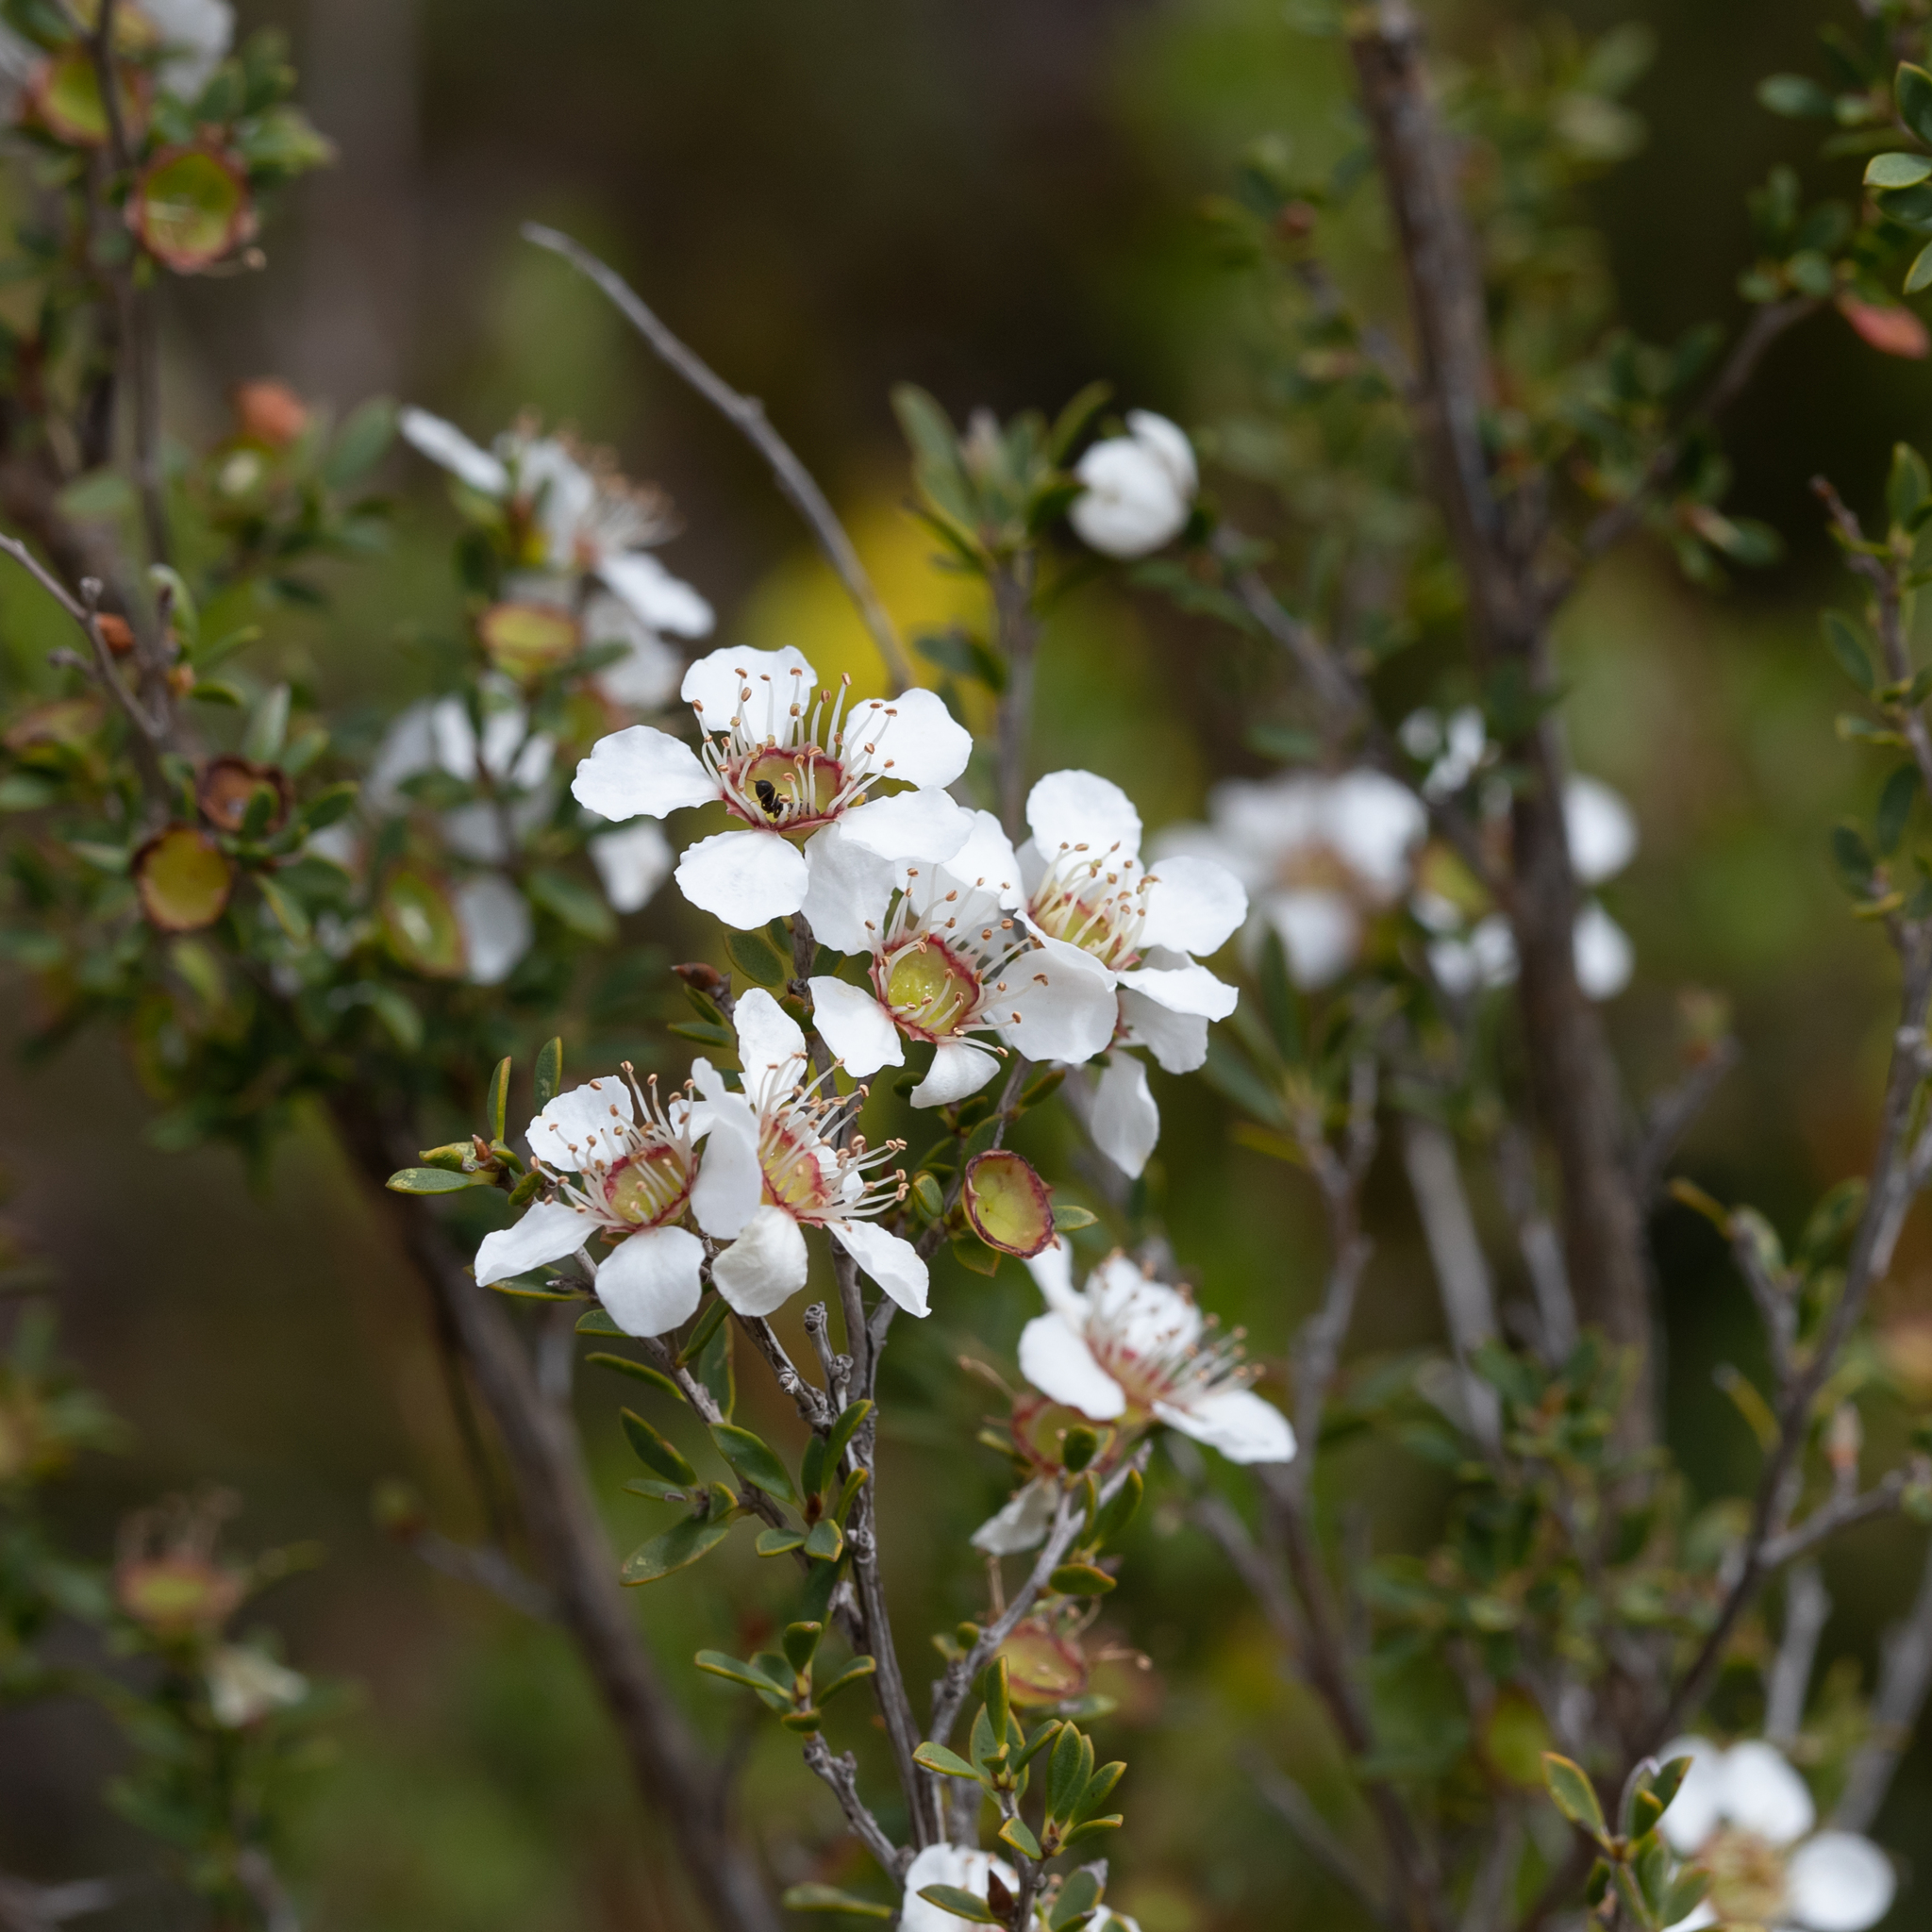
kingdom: Plantae
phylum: Tracheophyta
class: Magnoliopsida
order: Myrtales
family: Myrtaceae
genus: Leptospermum
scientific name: Leptospermum myrsinoides
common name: Heath teatree
